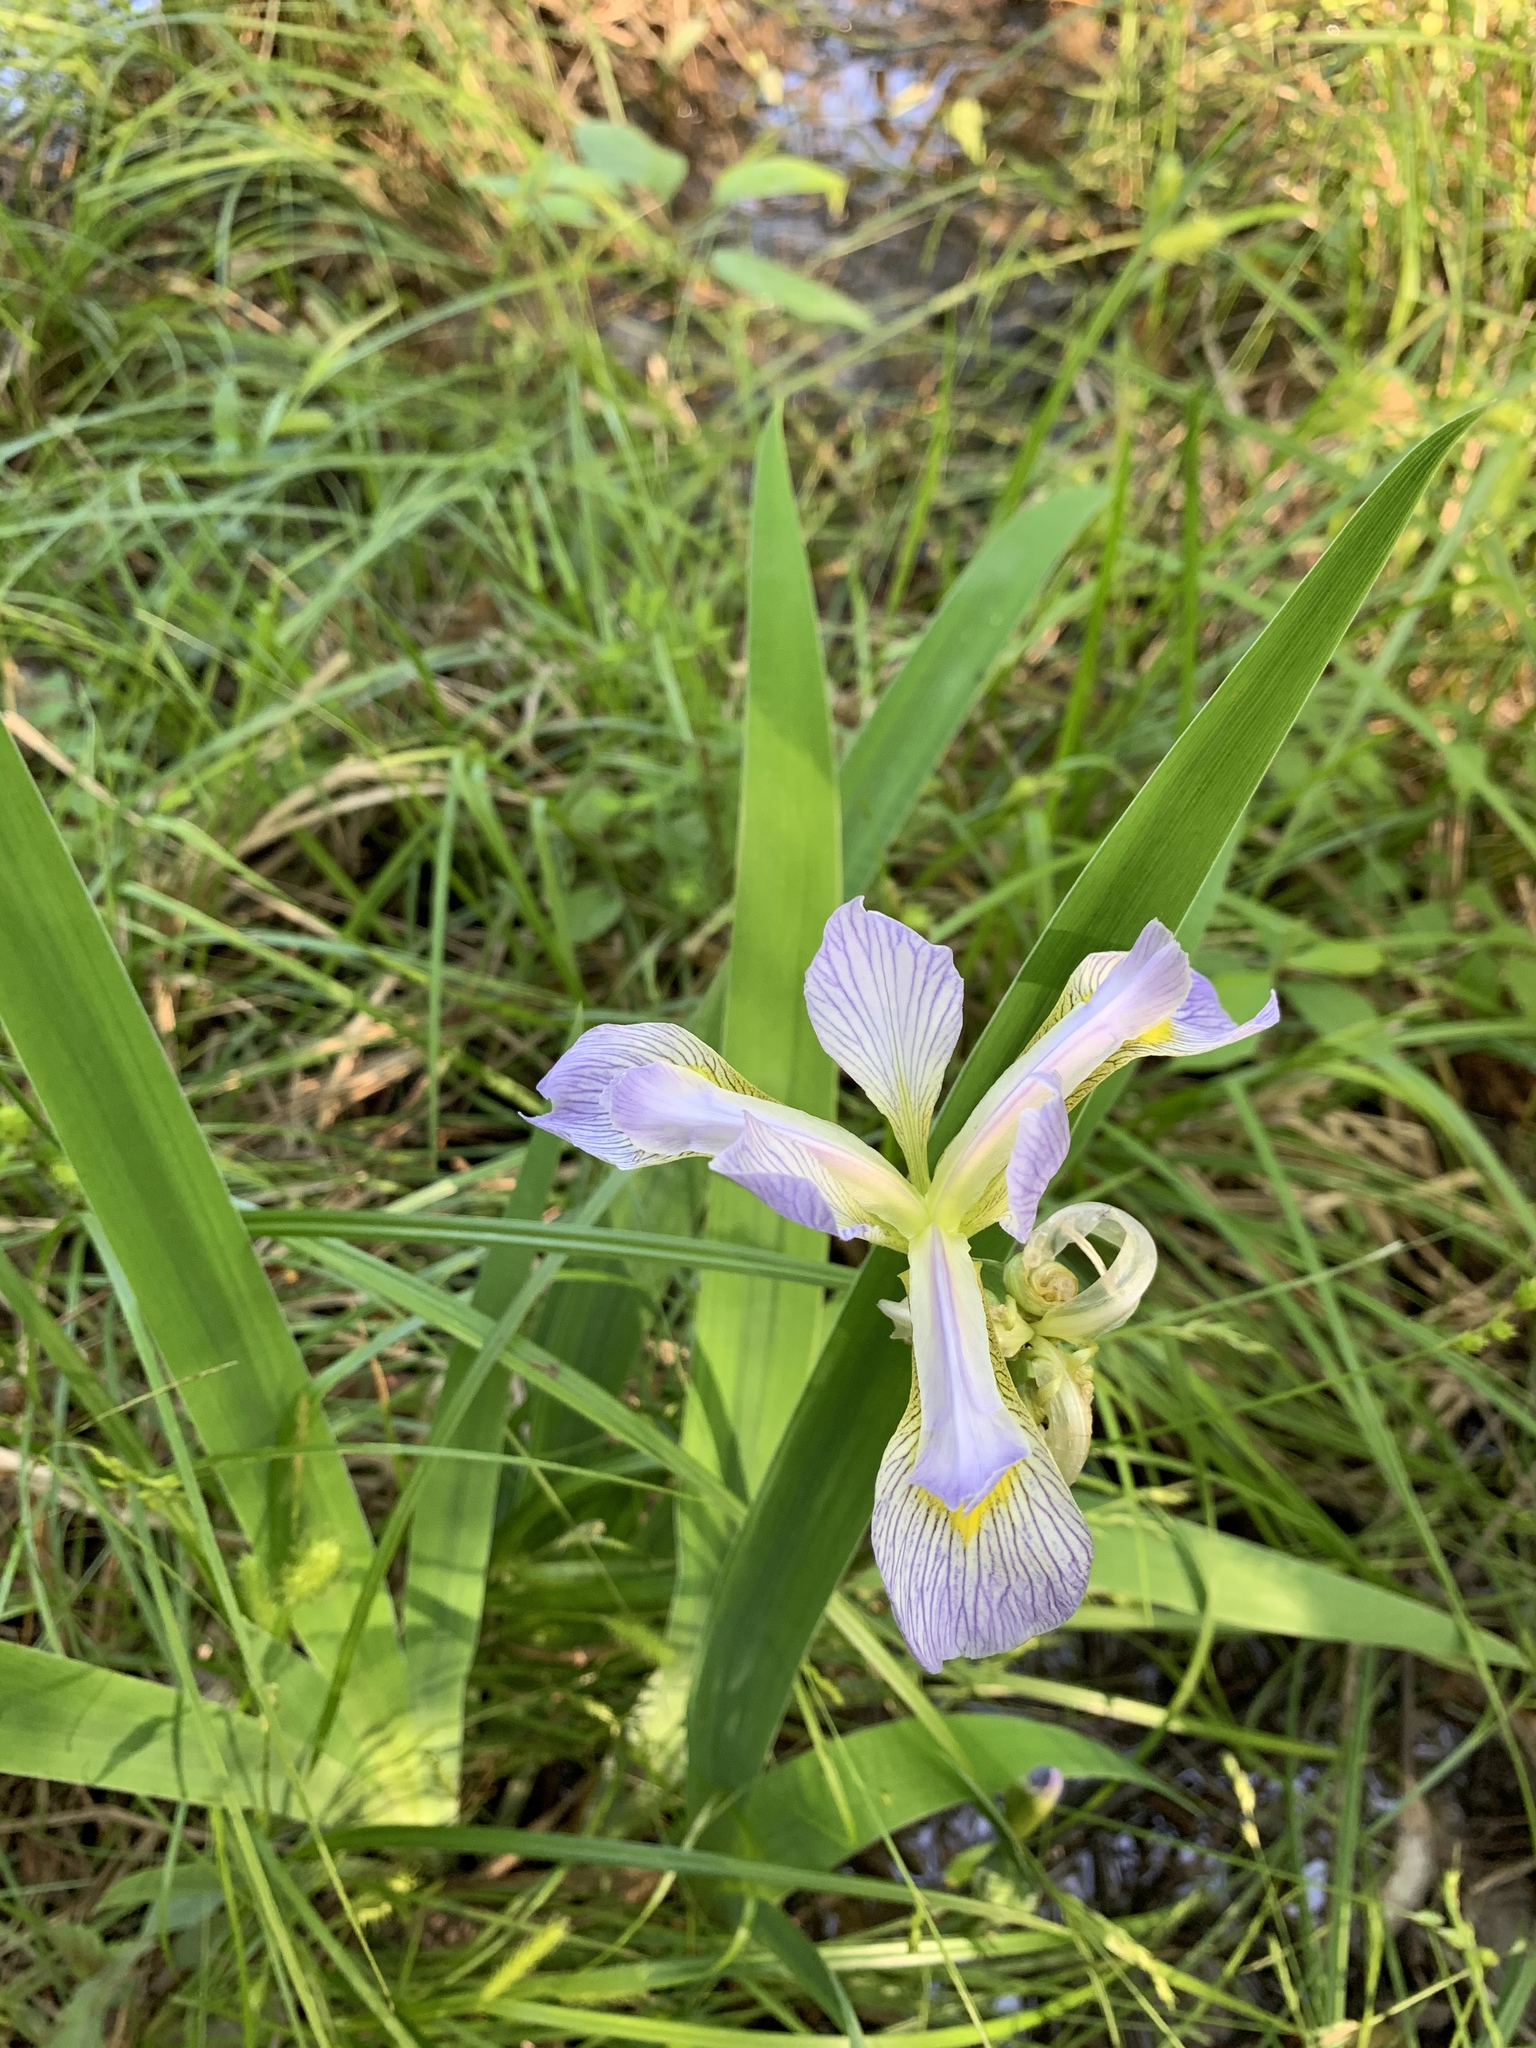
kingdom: Plantae
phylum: Tracheophyta
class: Liliopsida
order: Asparagales
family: Iridaceae
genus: Iris
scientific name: Iris virginica
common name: Southern blue flag
